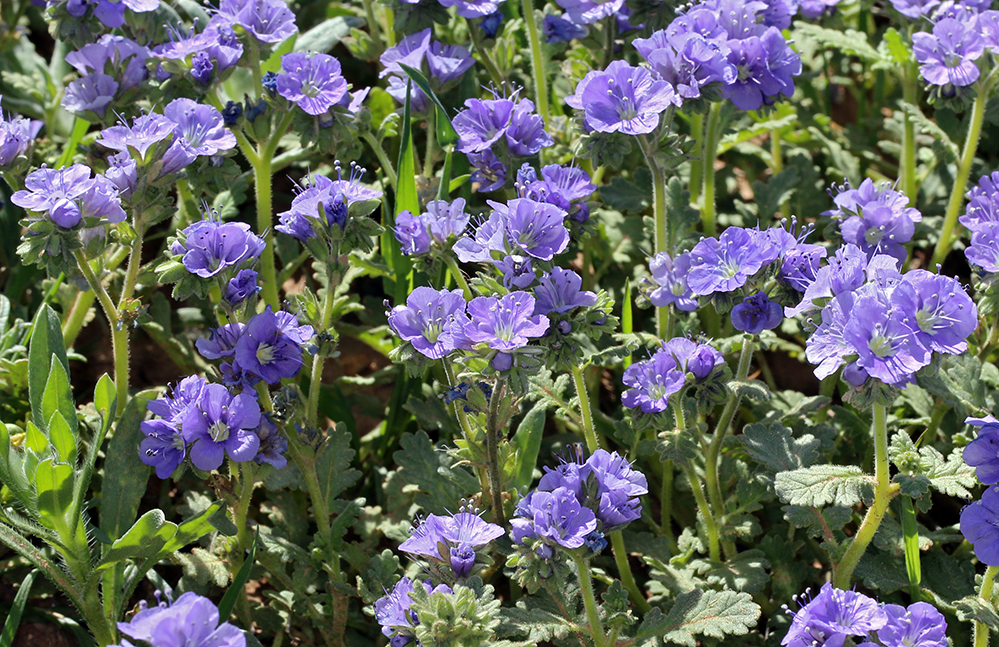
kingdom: Plantae
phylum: Tracheophyta
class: Magnoliopsida
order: Boraginales
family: Hydrophyllaceae
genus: Phacelia
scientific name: Phacelia ciliata
